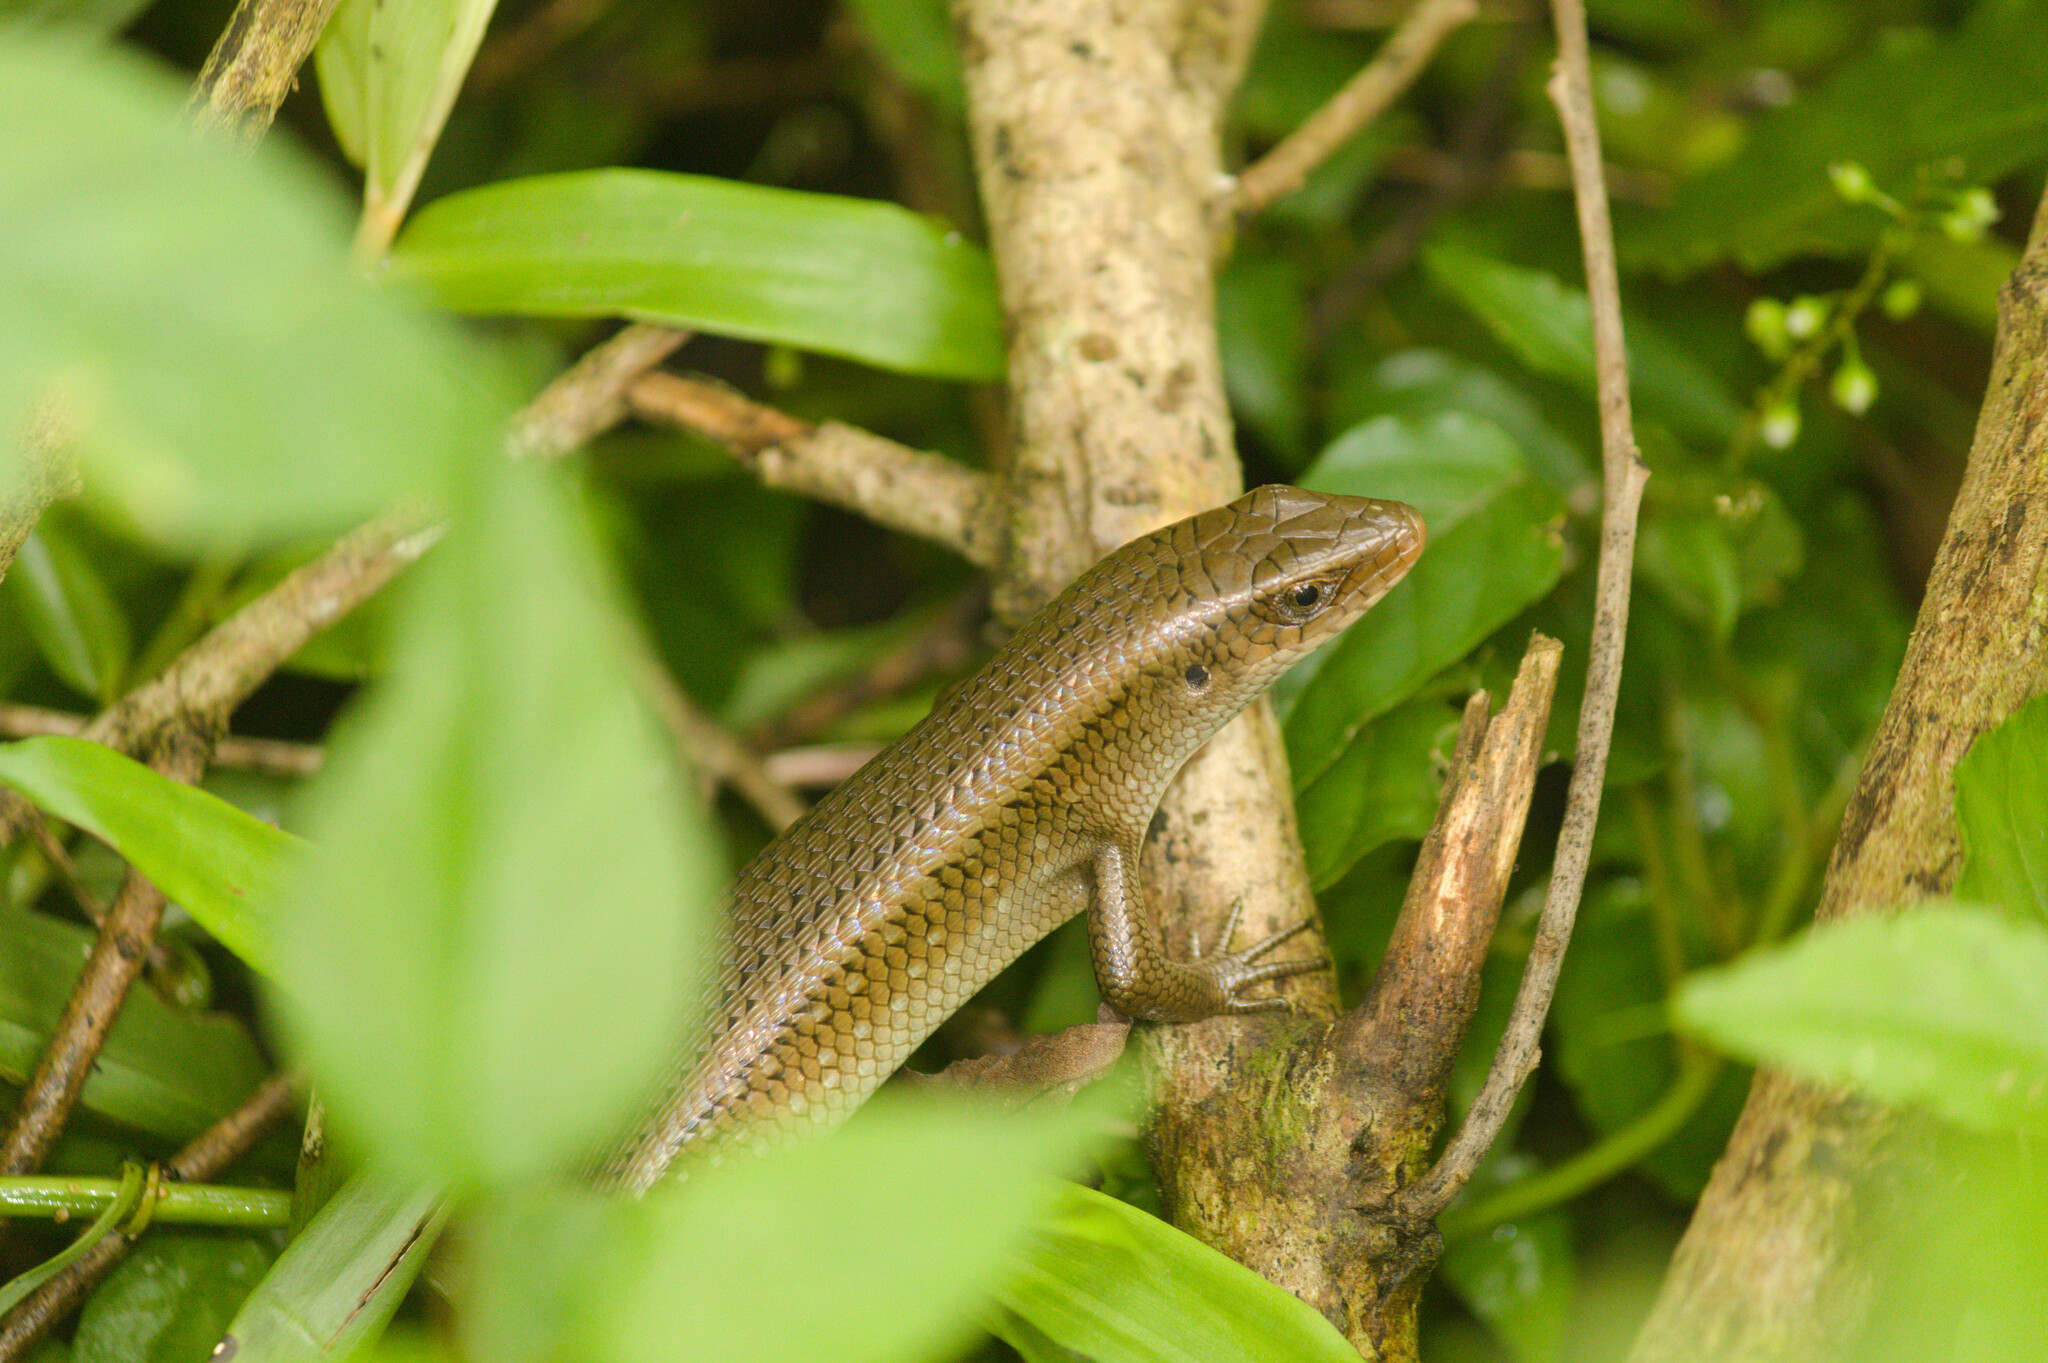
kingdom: Animalia
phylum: Chordata
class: Squamata
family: Scincidae
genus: Eutropis
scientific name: Eutropis multifasciata
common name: Common mabuya
